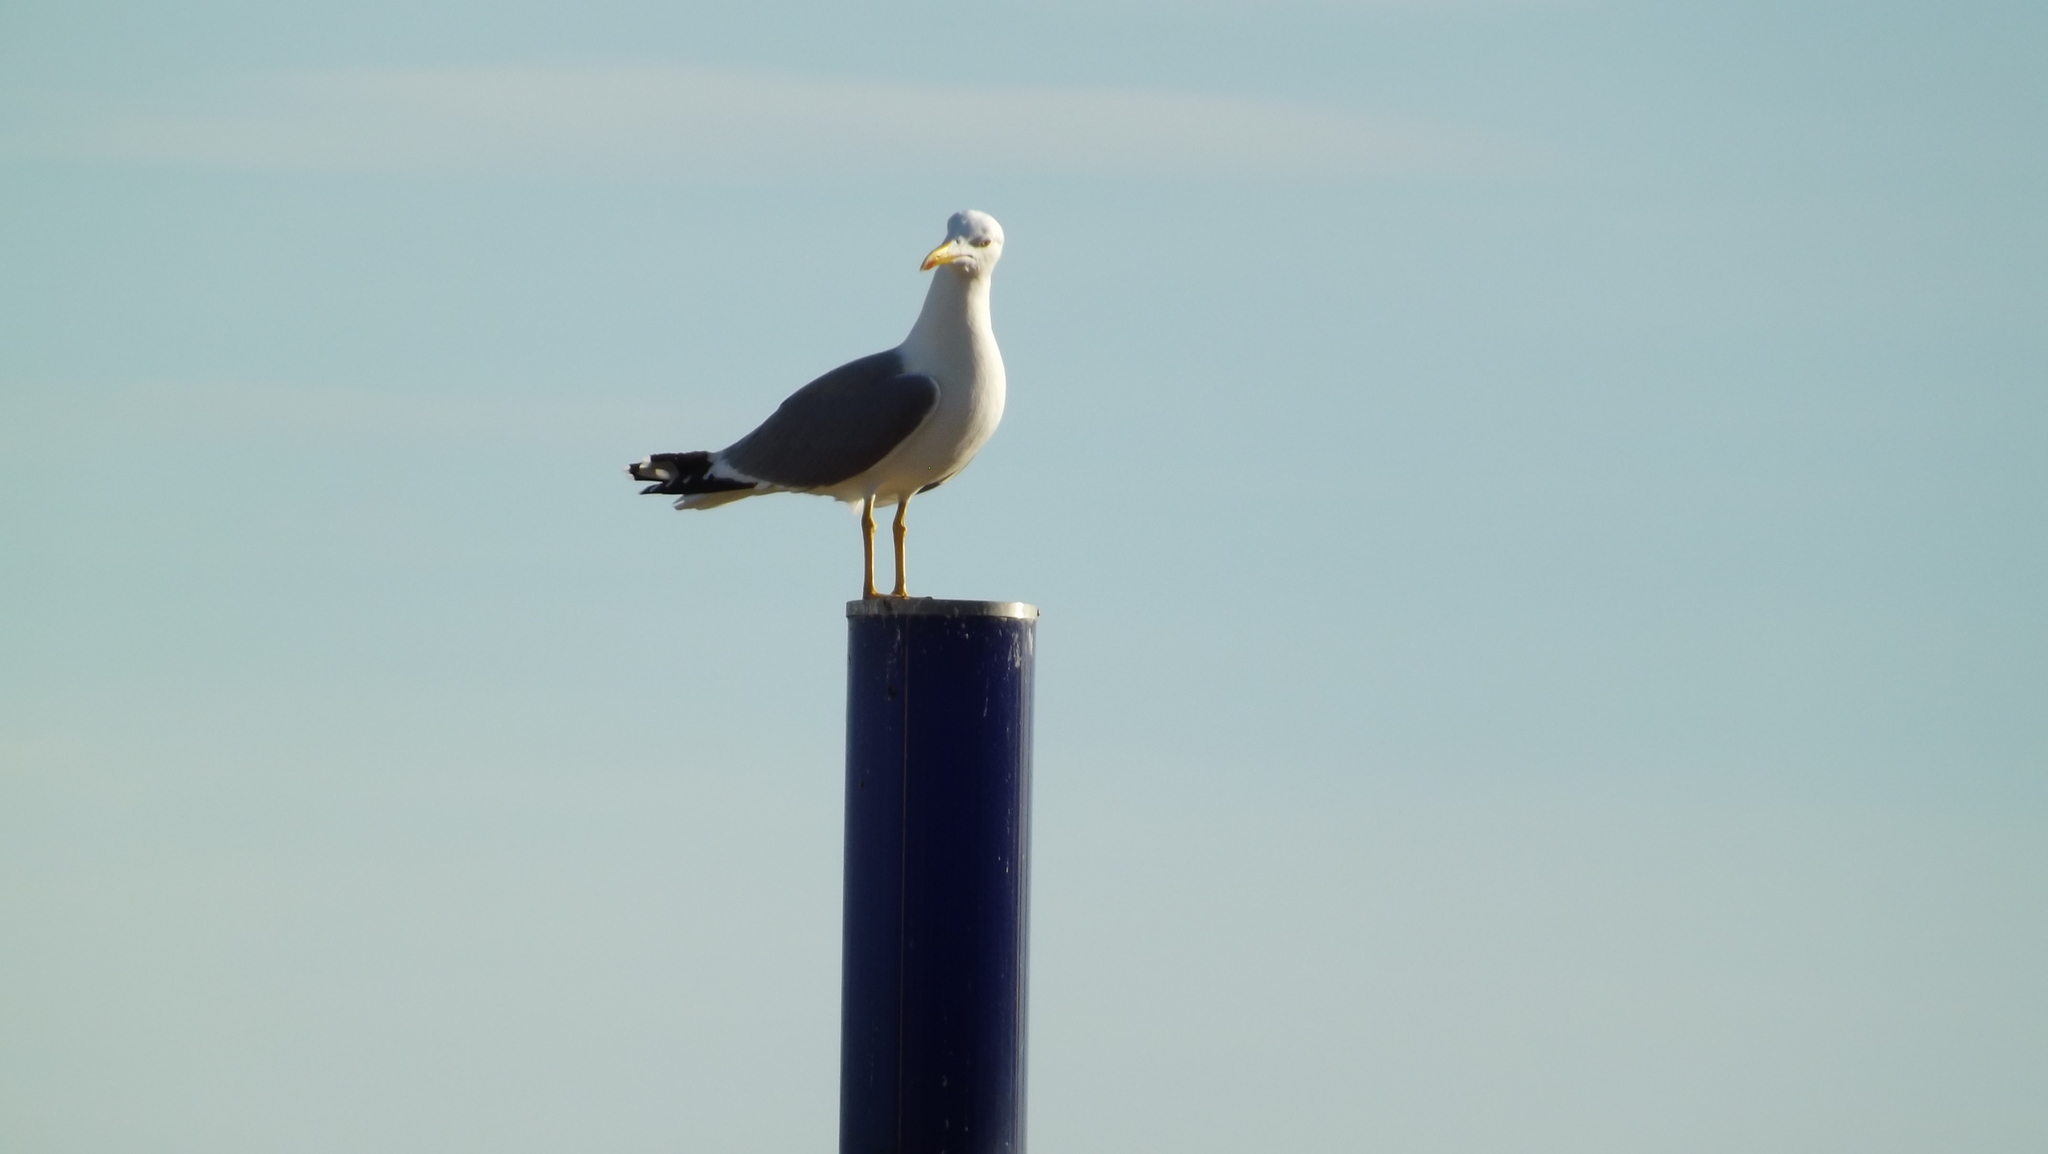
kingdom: Animalia
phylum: Chordata
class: Aves
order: Charadriiformes
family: Laridae
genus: Larus
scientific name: Larus michahellis
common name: Yellow-legged gull
